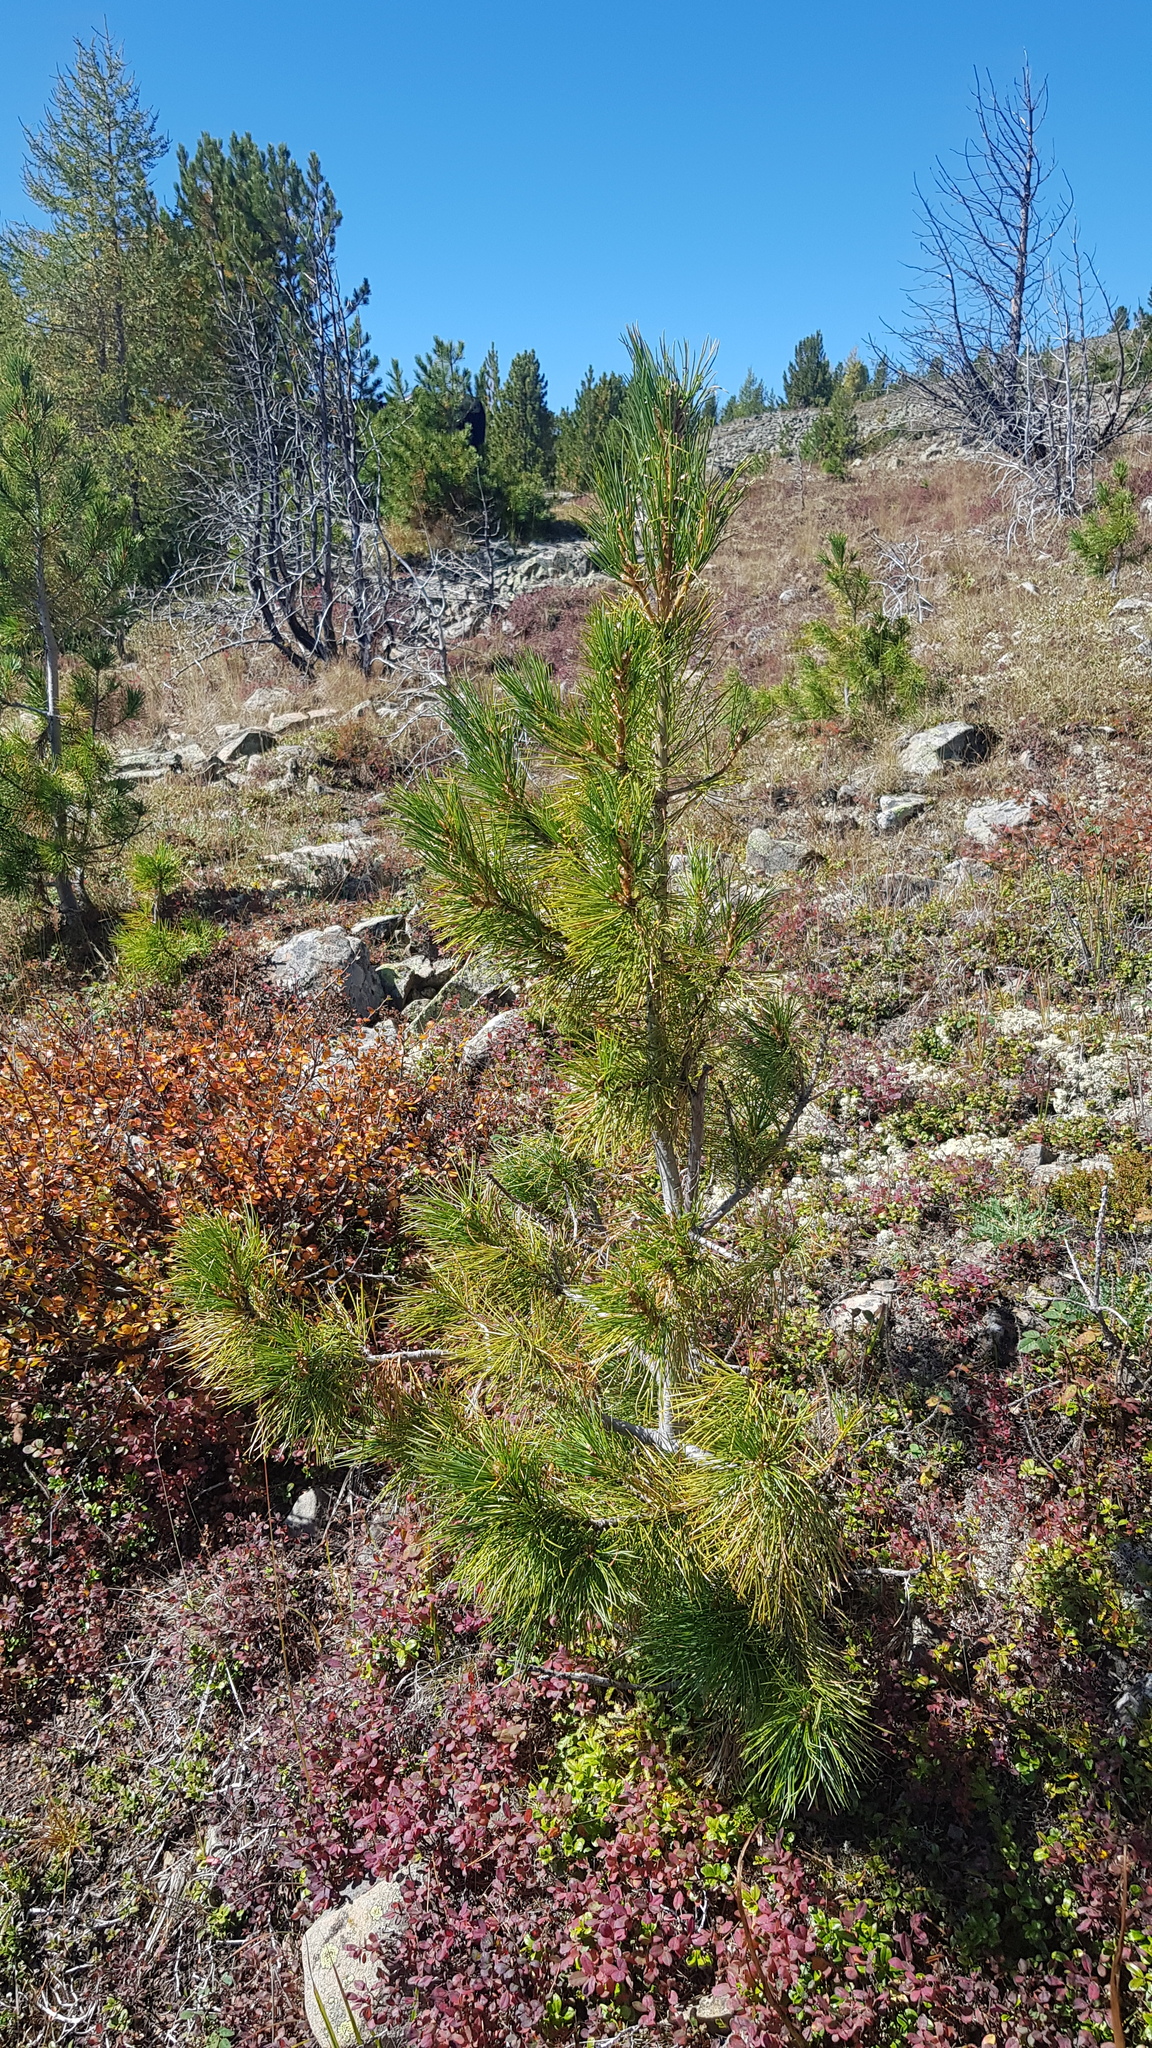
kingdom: Plantae
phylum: Tracheophyta
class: Pinopsida
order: Pinales
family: Pinaceae
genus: Larix
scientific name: Larix sibirica
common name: Siberian larch
